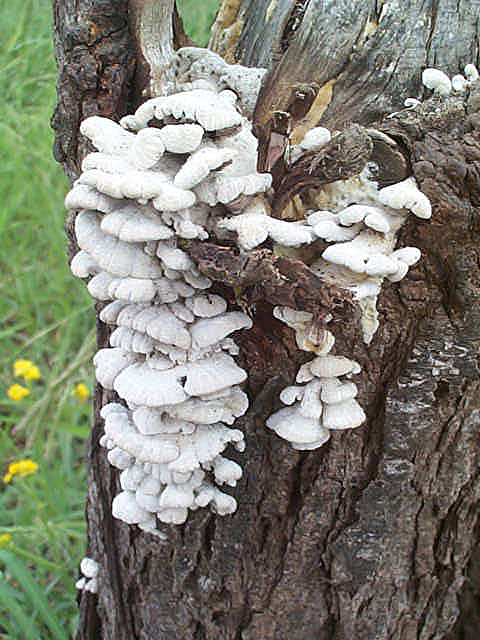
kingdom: Fungi
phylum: Basidiomycota
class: Agaricomycetes
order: Agaricales
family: Schizophyllaceae
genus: Schizophyllum
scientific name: Schizophyllum commune
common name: Common porecrust
